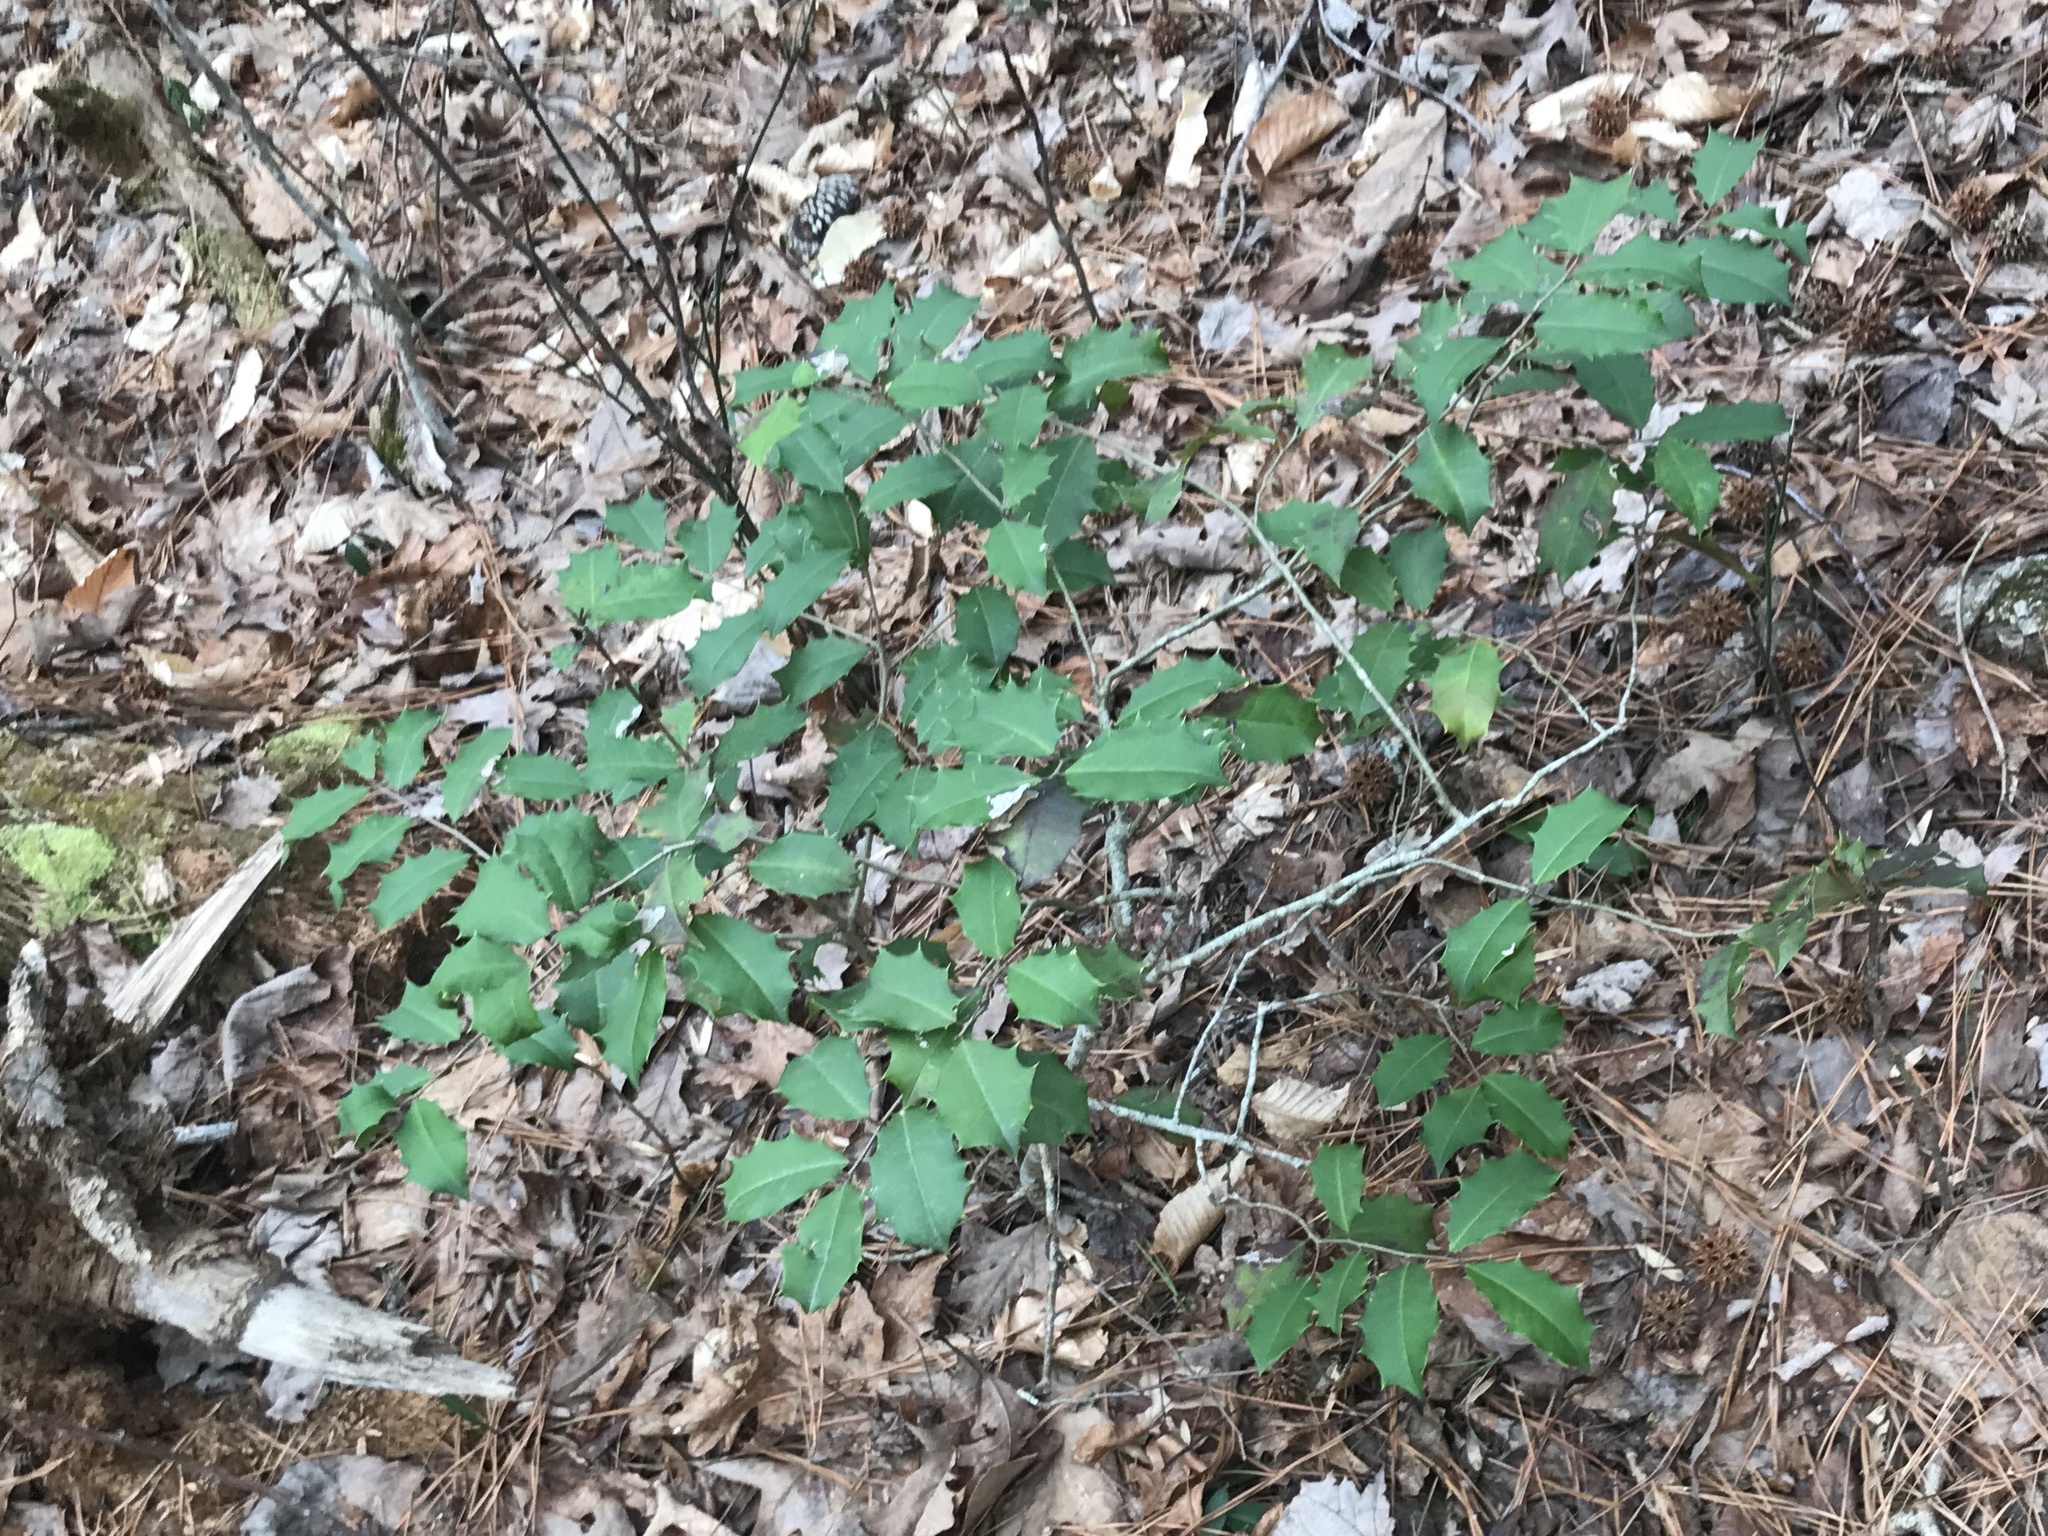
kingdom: Plantae
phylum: Tracheophyta
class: Magnoliopsida
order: Aquifoliales
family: Aquifoliaceae
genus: Ilex
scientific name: Ilex opaca
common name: American holly
